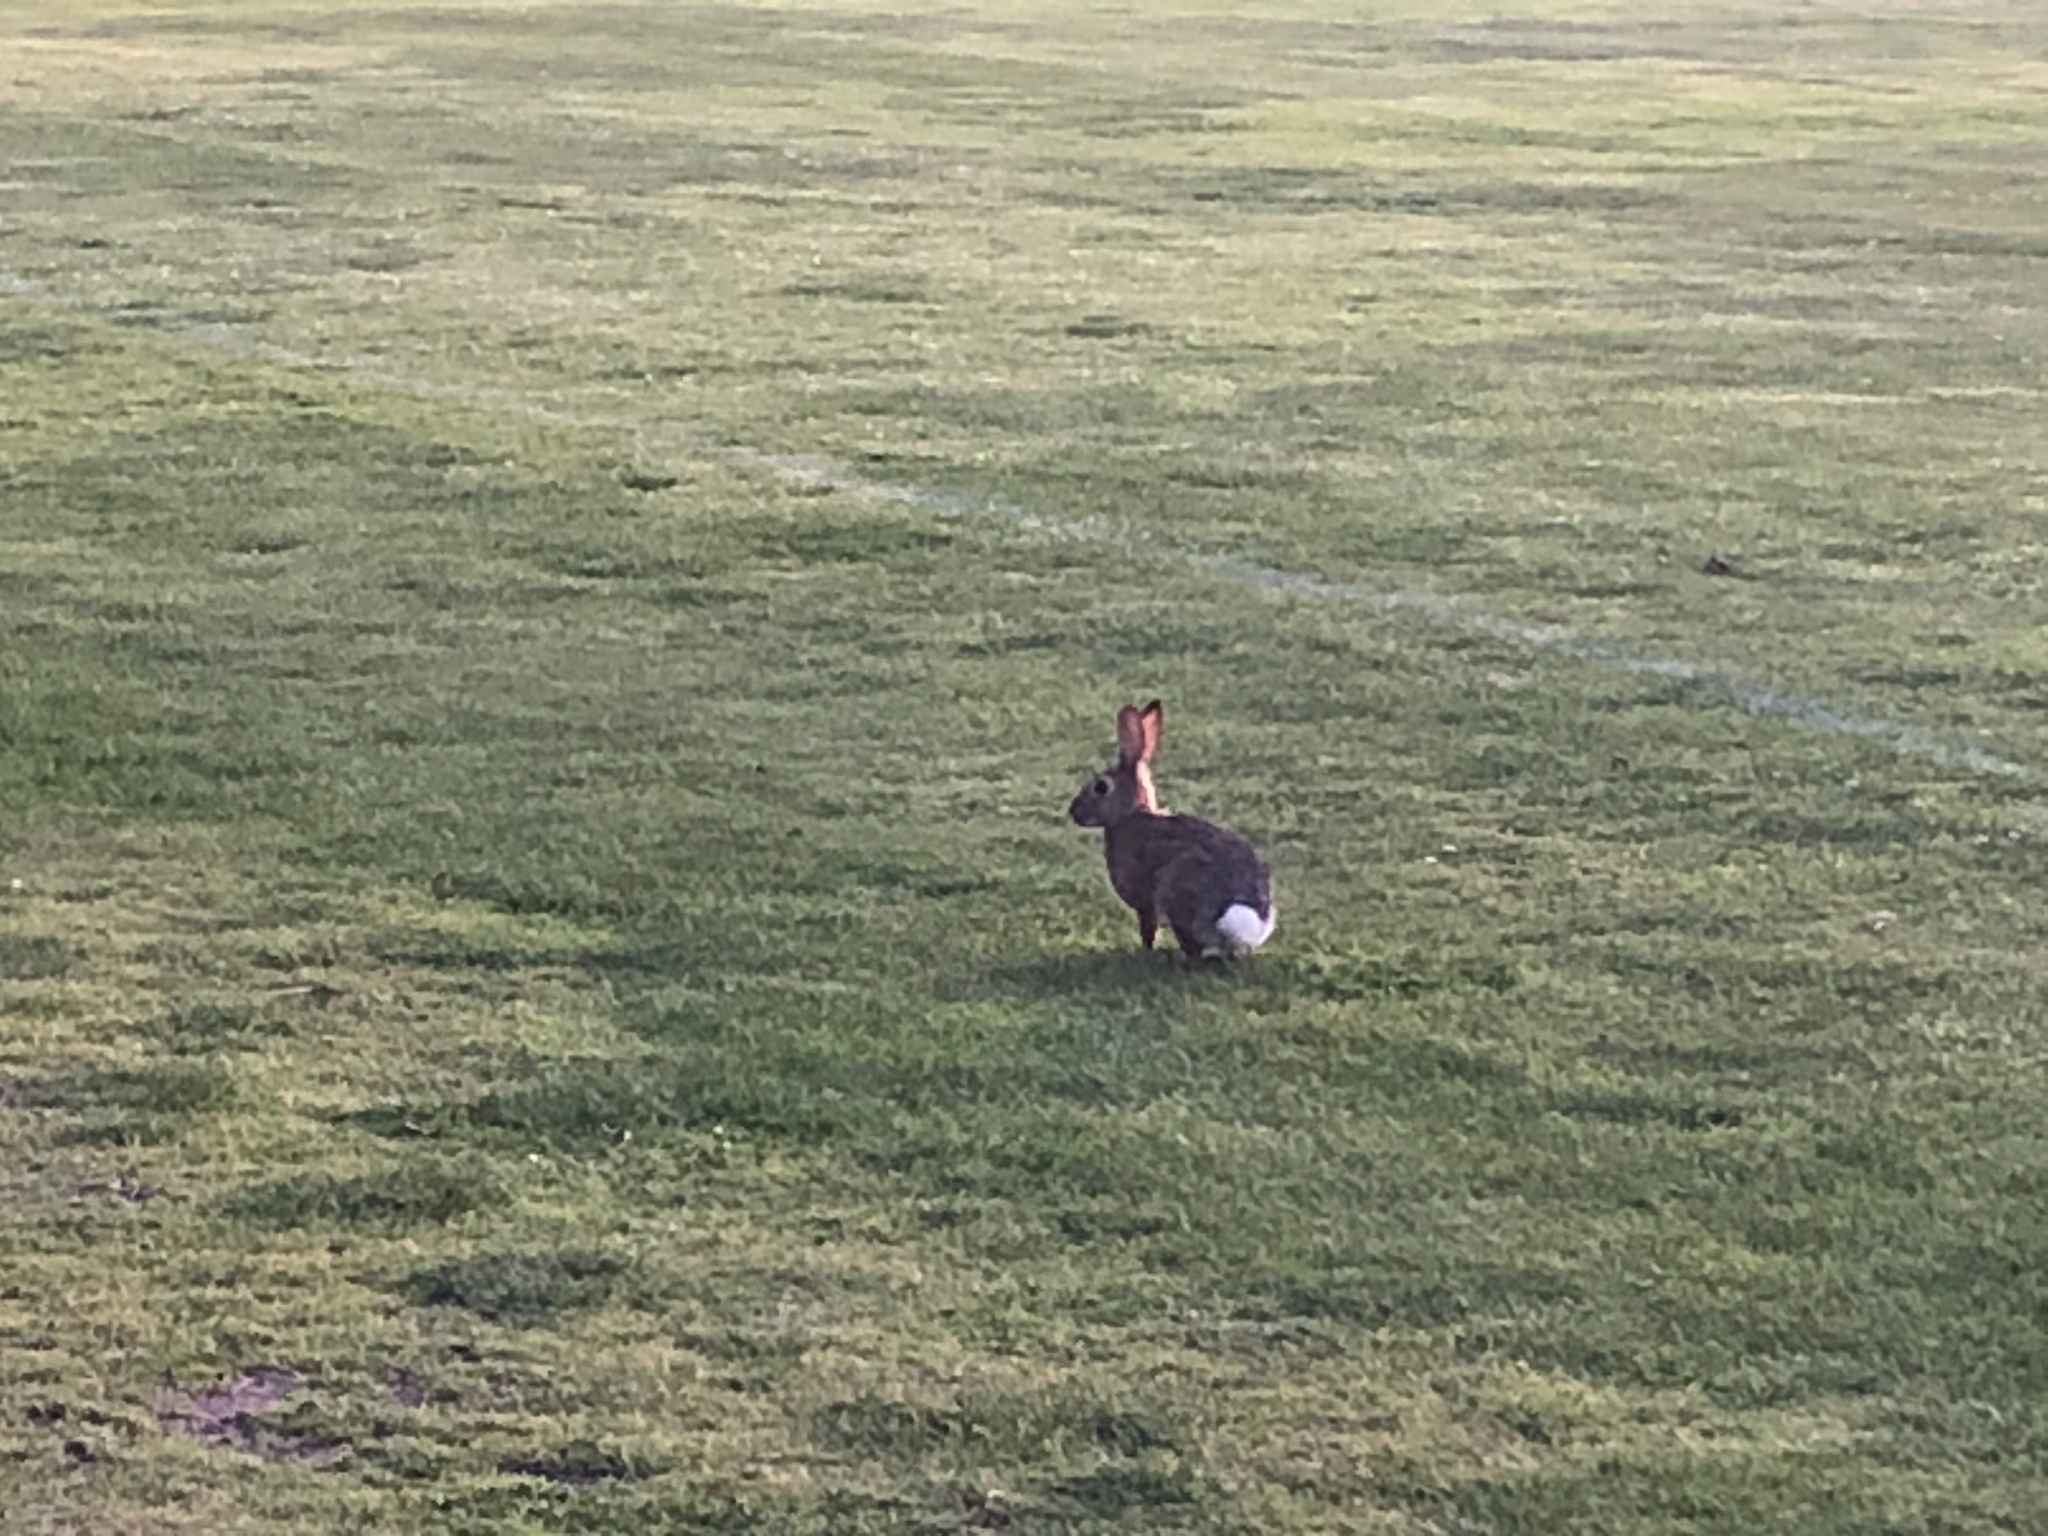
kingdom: Animalia
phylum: Chordata
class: Mammalia
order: Lagomorpha
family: Leporidae
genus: Sylvilagus
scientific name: Sylvilagus audubonii
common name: Desert cottontail
